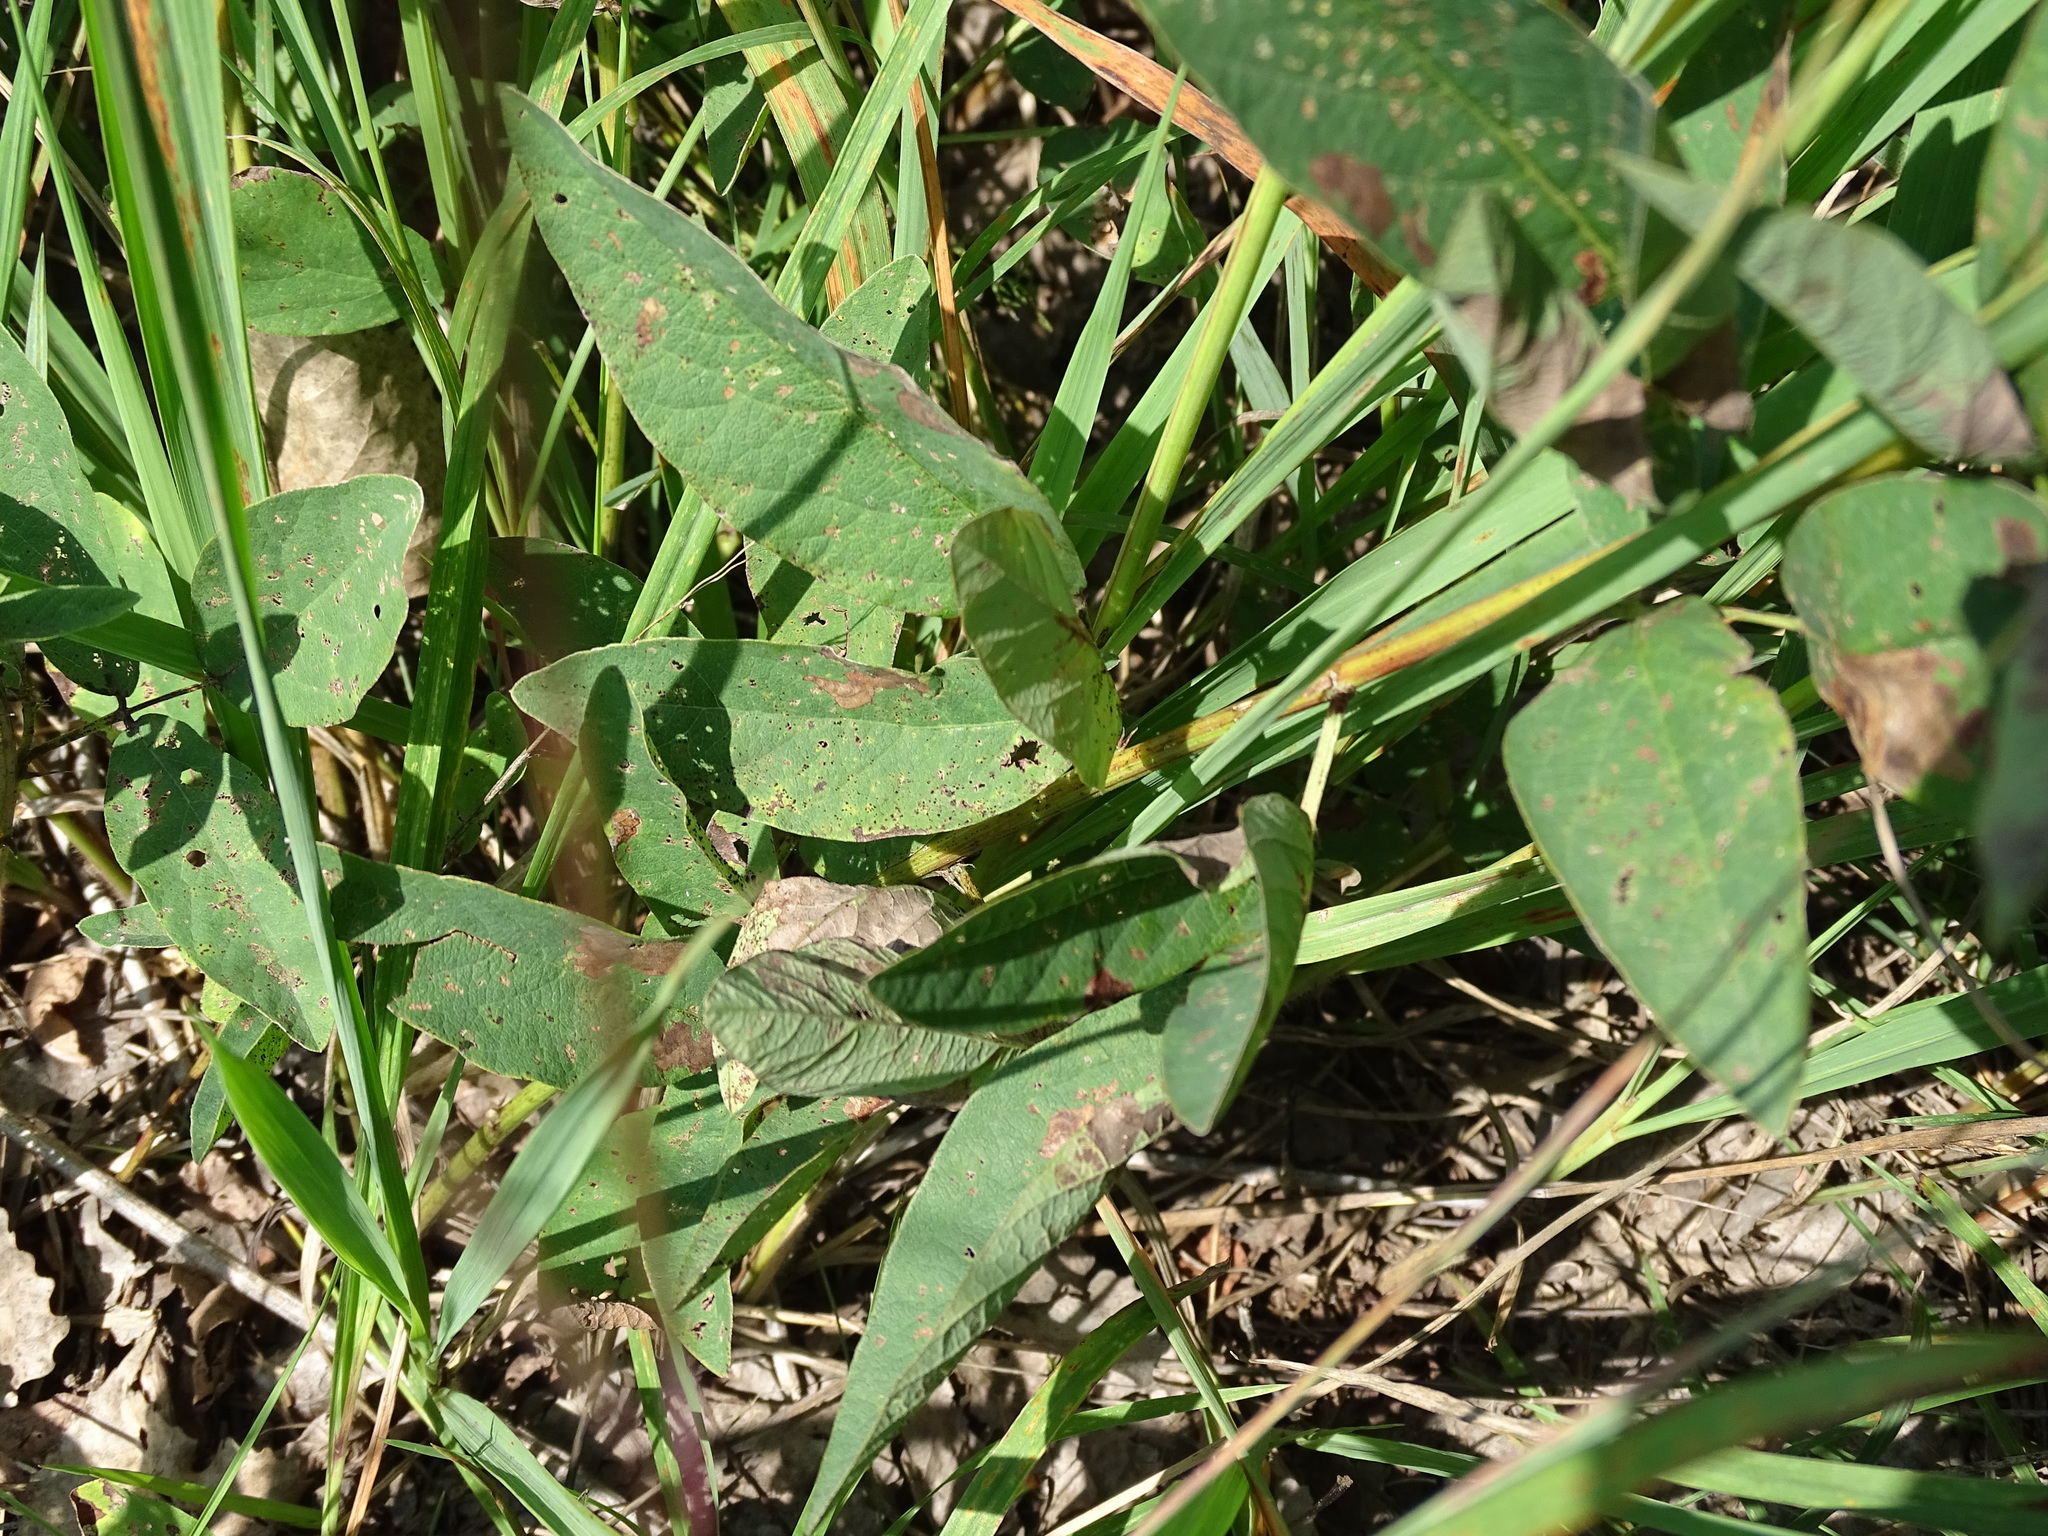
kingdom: Plantae
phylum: Tracheophyta
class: Magnoliopsida
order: Fabales
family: Fabaceae
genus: Desmodium
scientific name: Desmodium canadense
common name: Canada tick-trefoil
